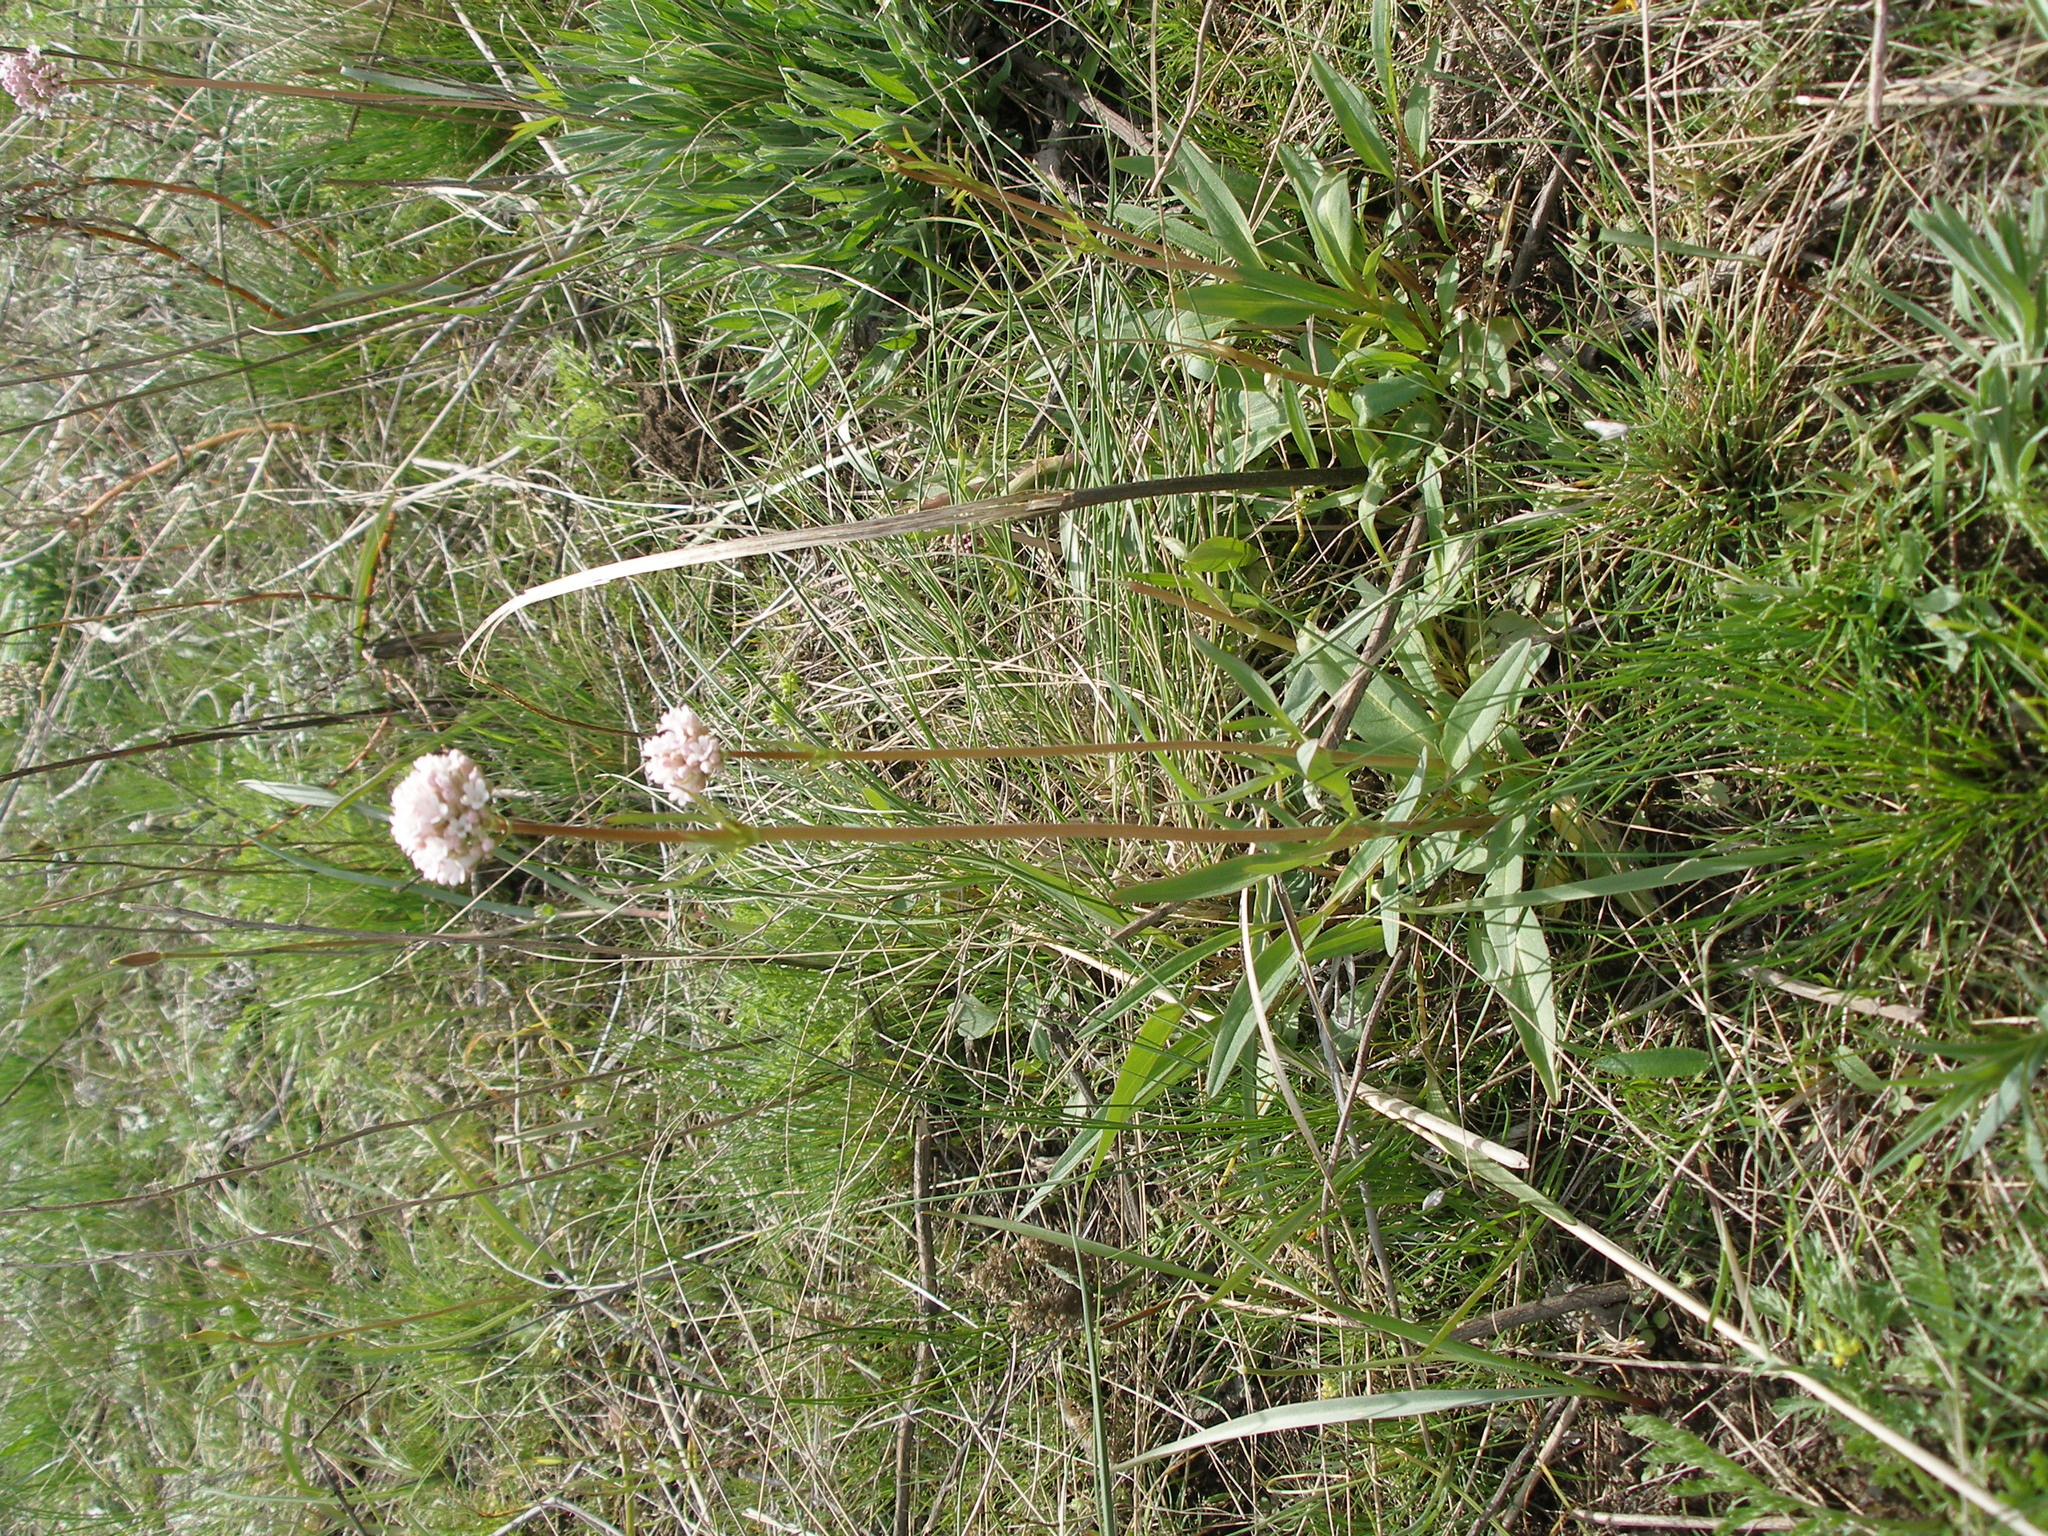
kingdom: Plantae
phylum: Tracheophyta
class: Magnoliopsida
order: Dipsacales
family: Caprifoliaceae
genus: Valeriana
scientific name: Valeriana tuberosa
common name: Tuberous valerian
